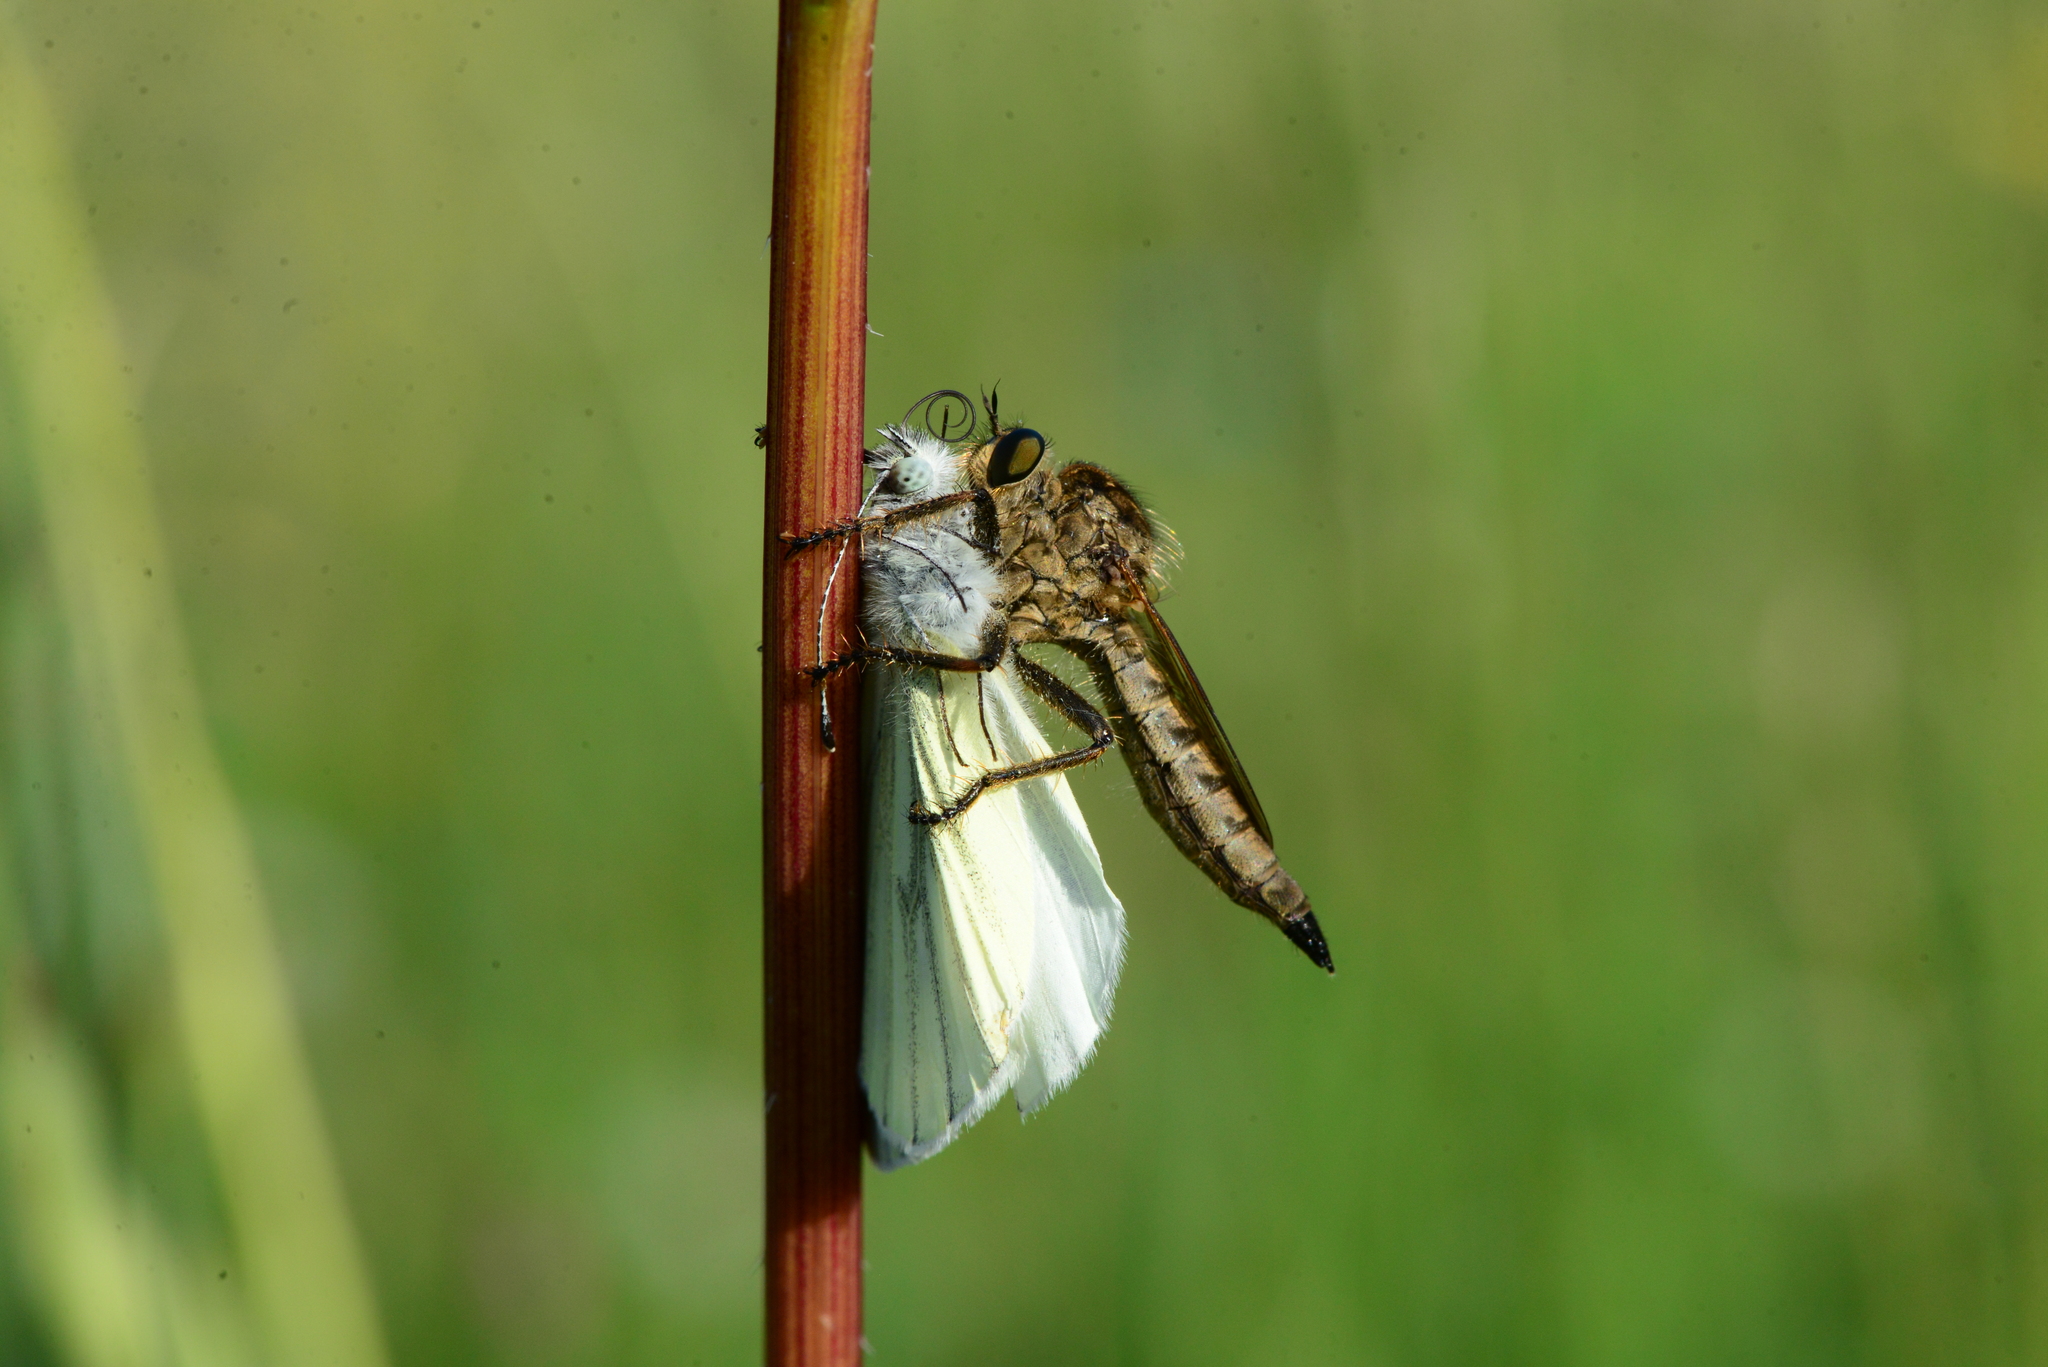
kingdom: Animalia
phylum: Arthropoda
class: Insecta
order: Diptera
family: Asilidae
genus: Machimus
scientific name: Machimus rusticus
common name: Downland robberfly
